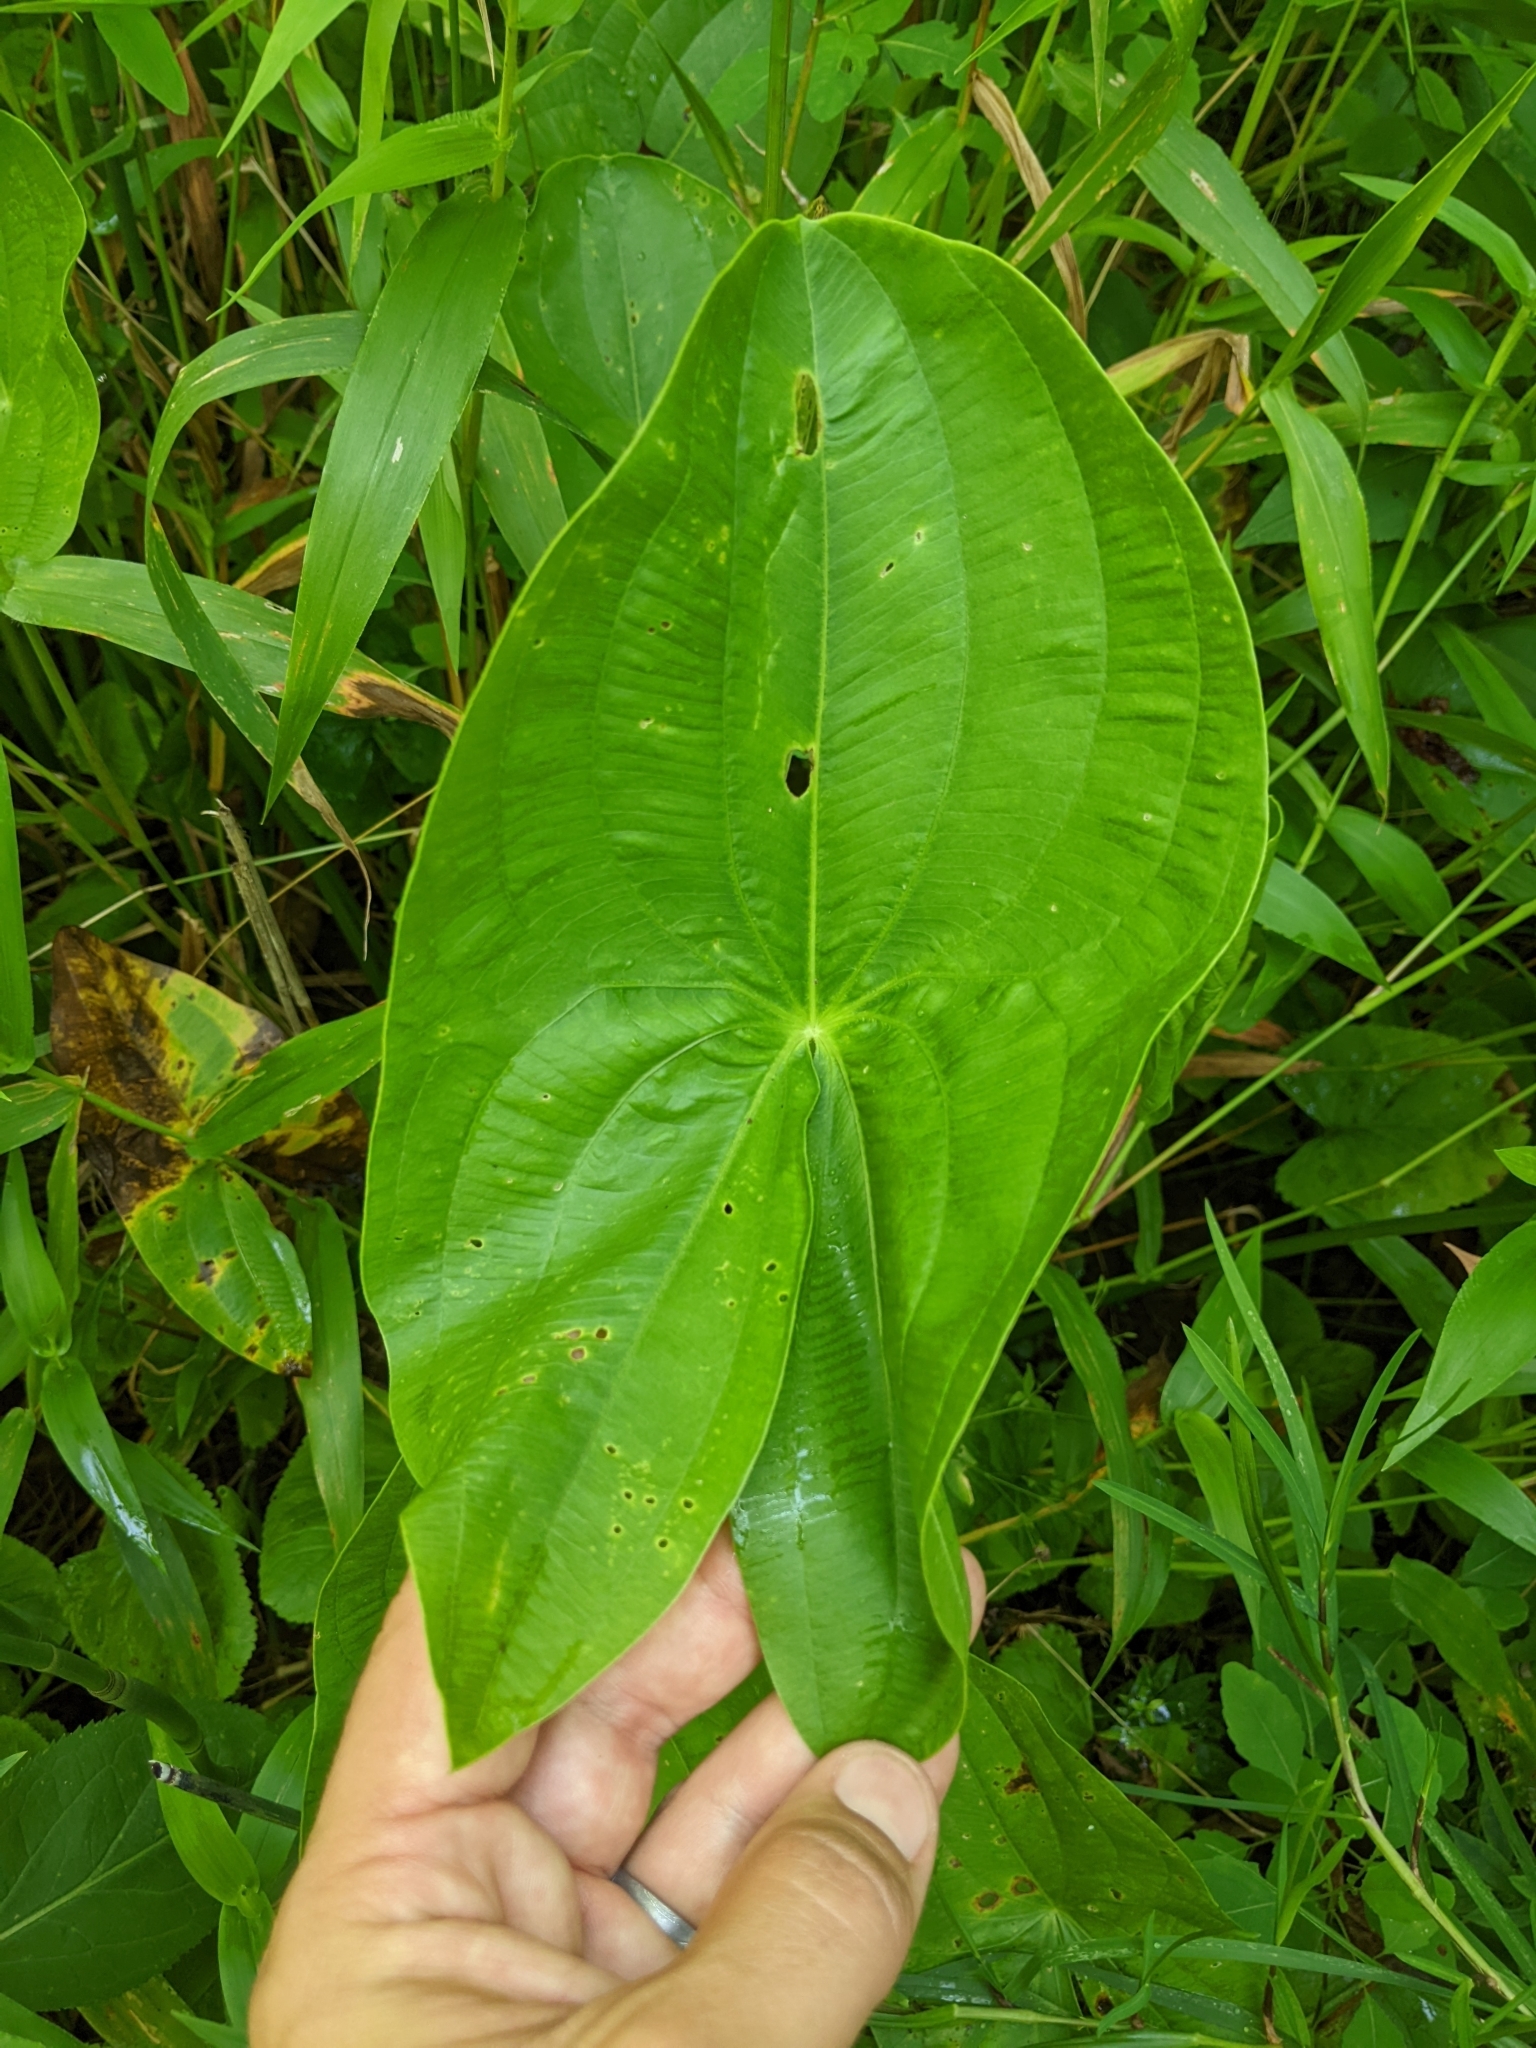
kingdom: Plantae
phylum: Tracheophyta
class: Liliopsida
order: Alismatales
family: Alismataceae
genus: Sagittaria
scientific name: Sagittaria latifolia
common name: Duck-potato
